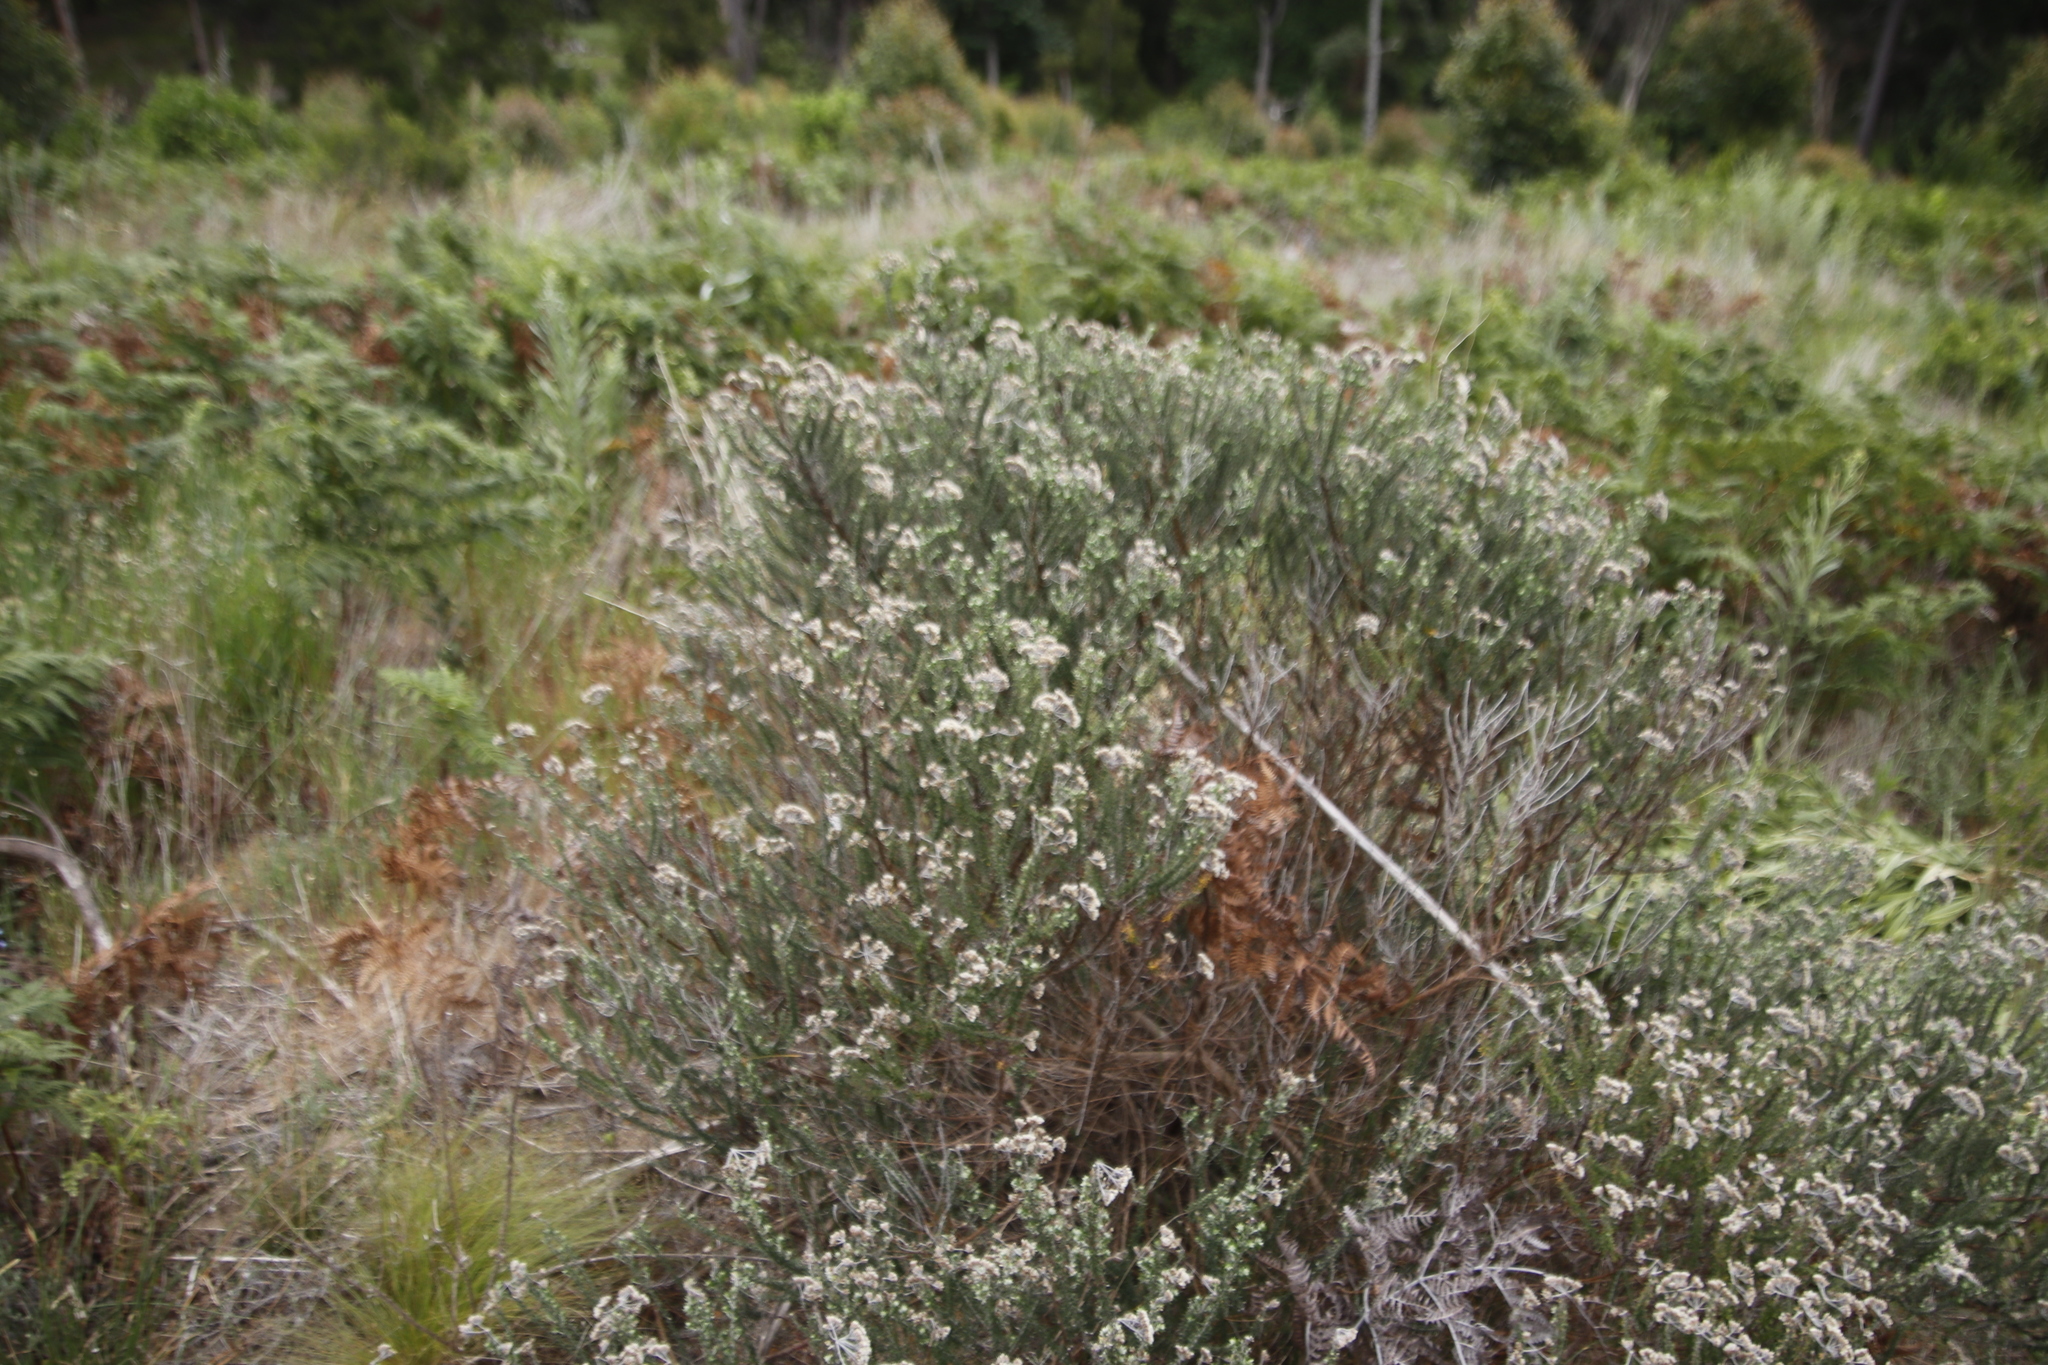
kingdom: Plantae
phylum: Tracheophyta
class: Magnoliopsida
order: Asterales
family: Asteraceae
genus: Metalasia
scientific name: Metalasia densa
